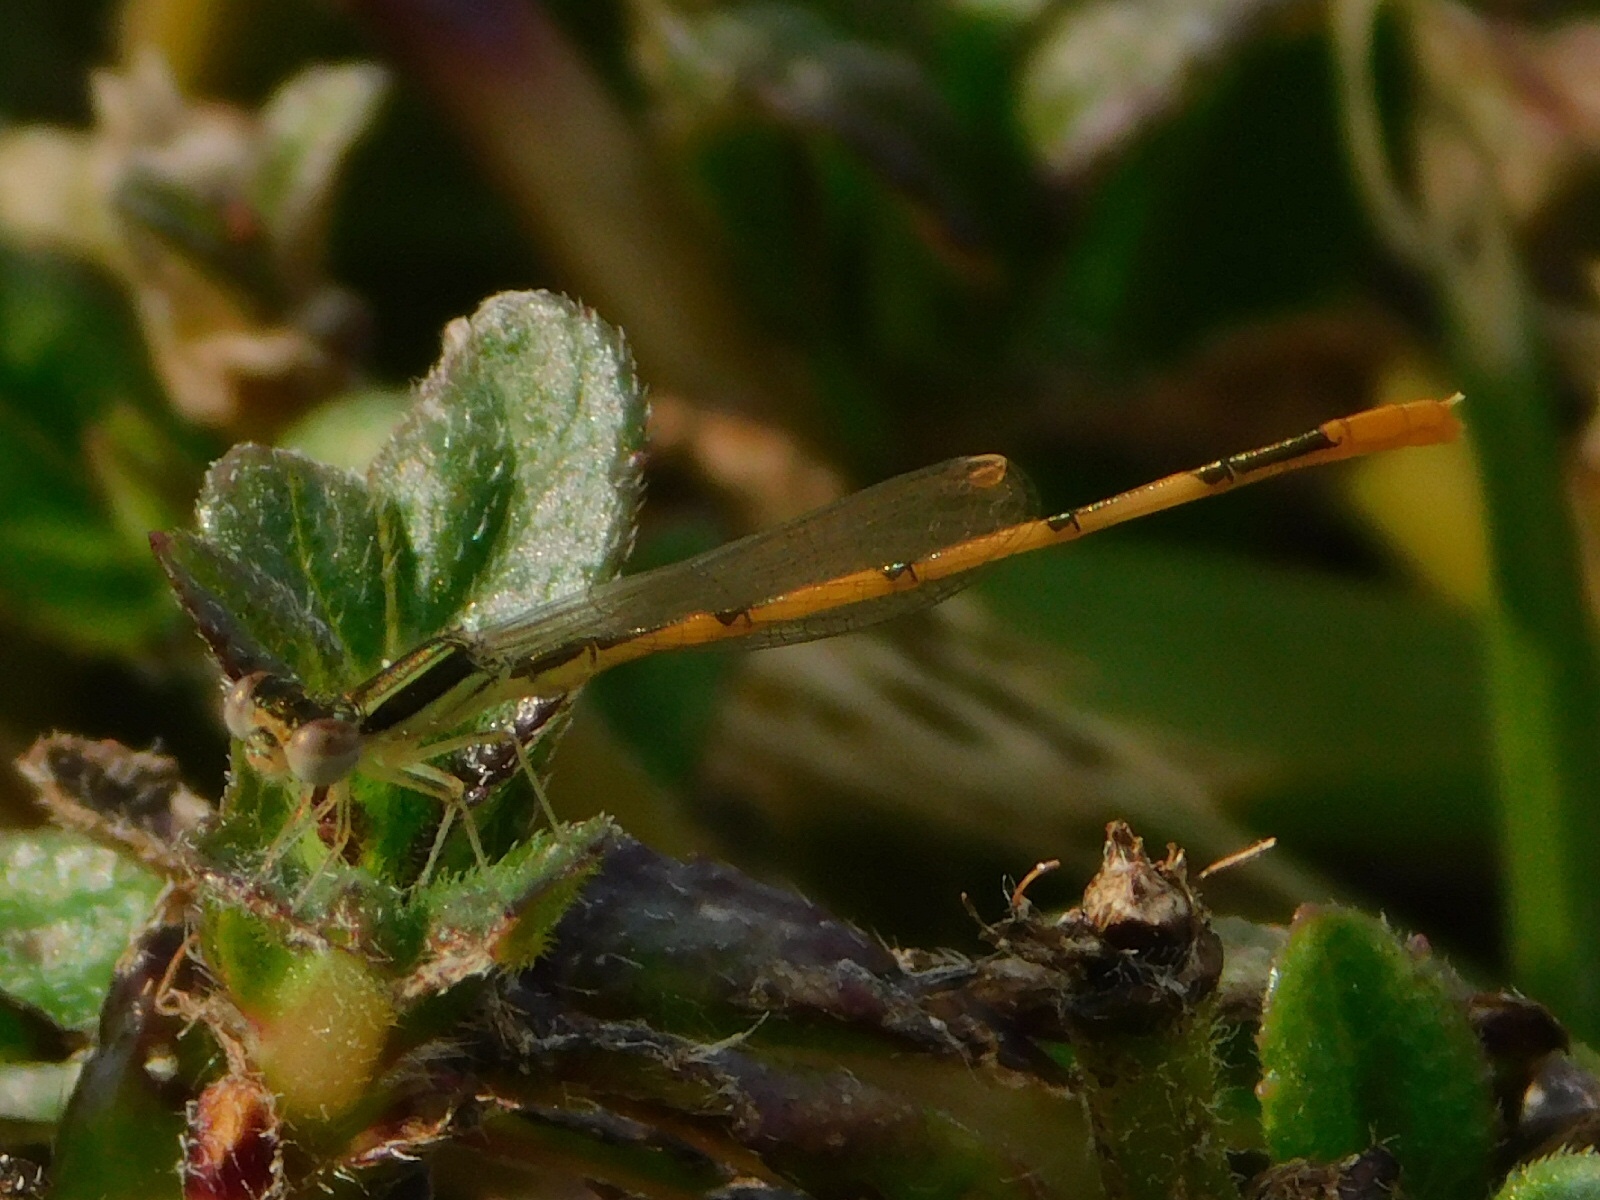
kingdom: Animalia
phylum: Arthropoda
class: Insecta
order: Odonata
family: Coenagrionidae
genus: Ischnura
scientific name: Ischnura hastata
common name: Citrine forktail
